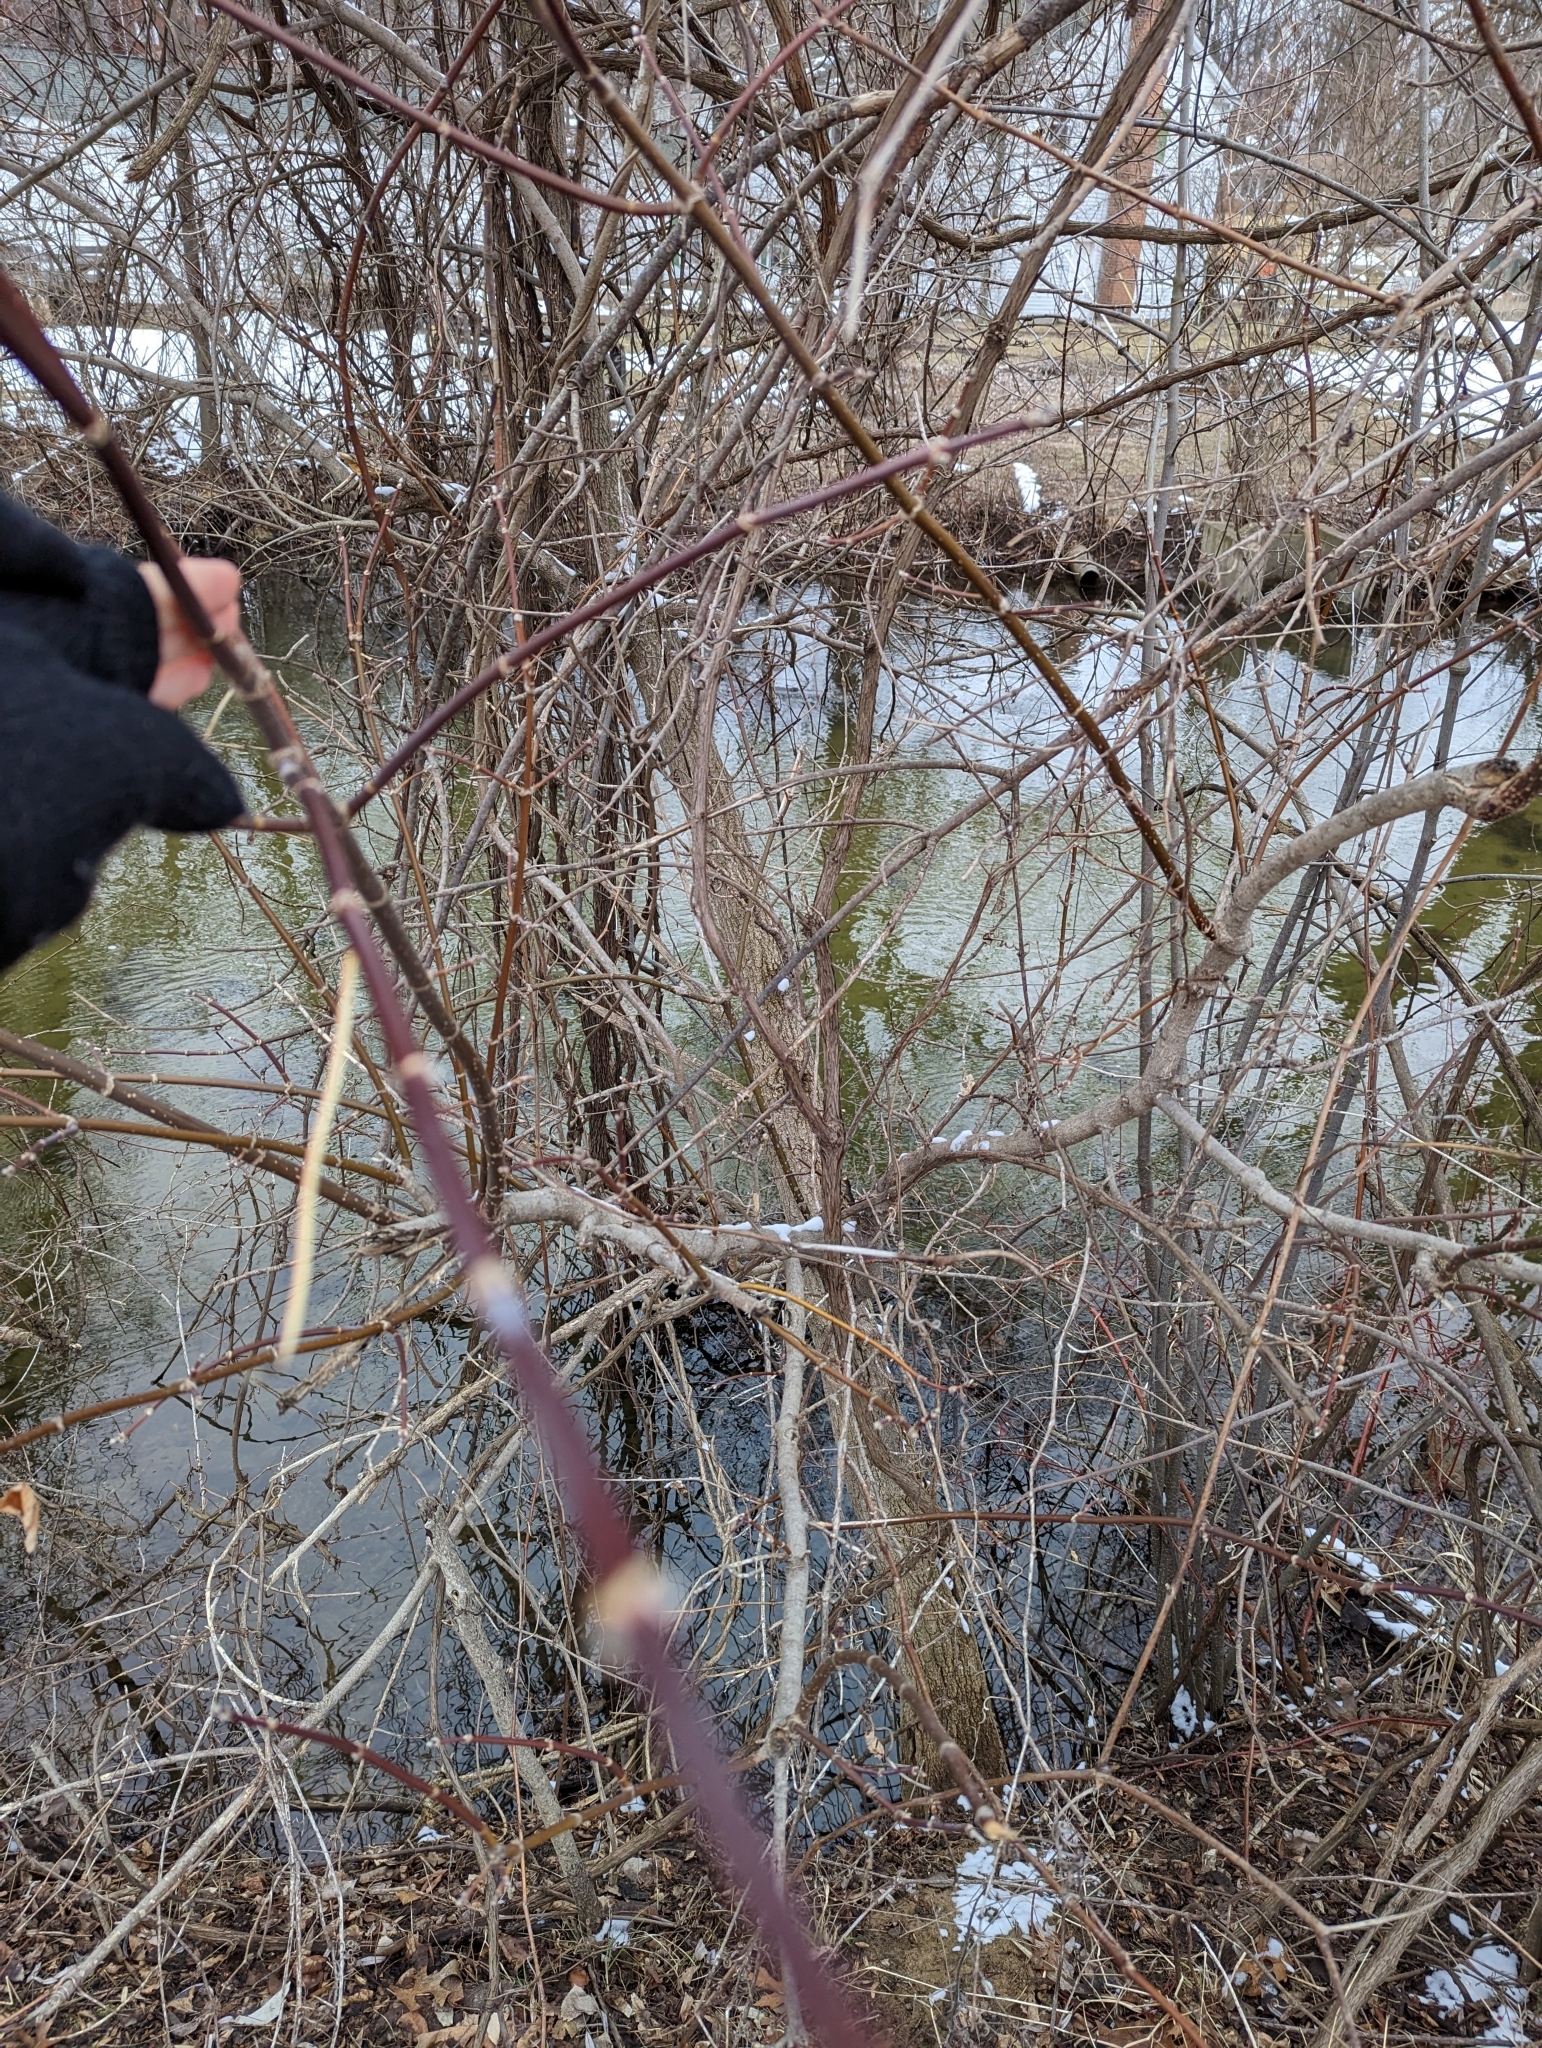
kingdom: Plantae
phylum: Tracheophyta
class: Magnoliopsida
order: Sapindales
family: Sapindaceae
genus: Acer
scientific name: Acer negundo
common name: Ashleaf maple
